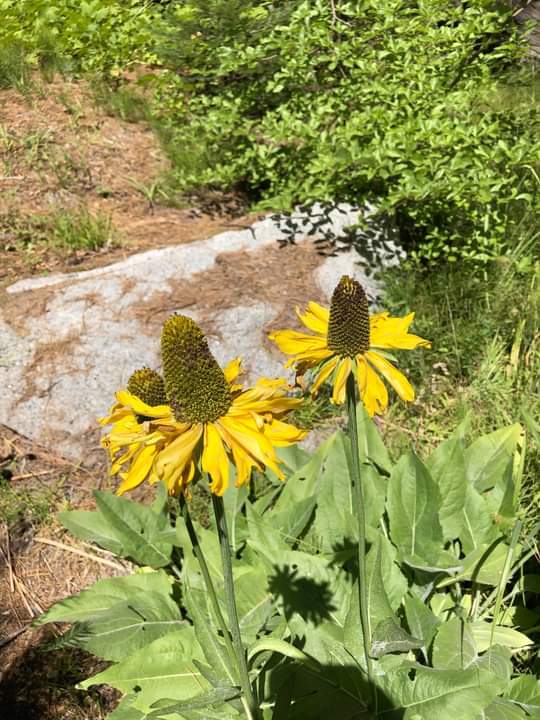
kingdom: Plantae
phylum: Tracheophyta
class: Magnoliopsida
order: Asterales
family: Asteraceae
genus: Rudbeckia
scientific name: Rudbeckia californica
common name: California coneflower
